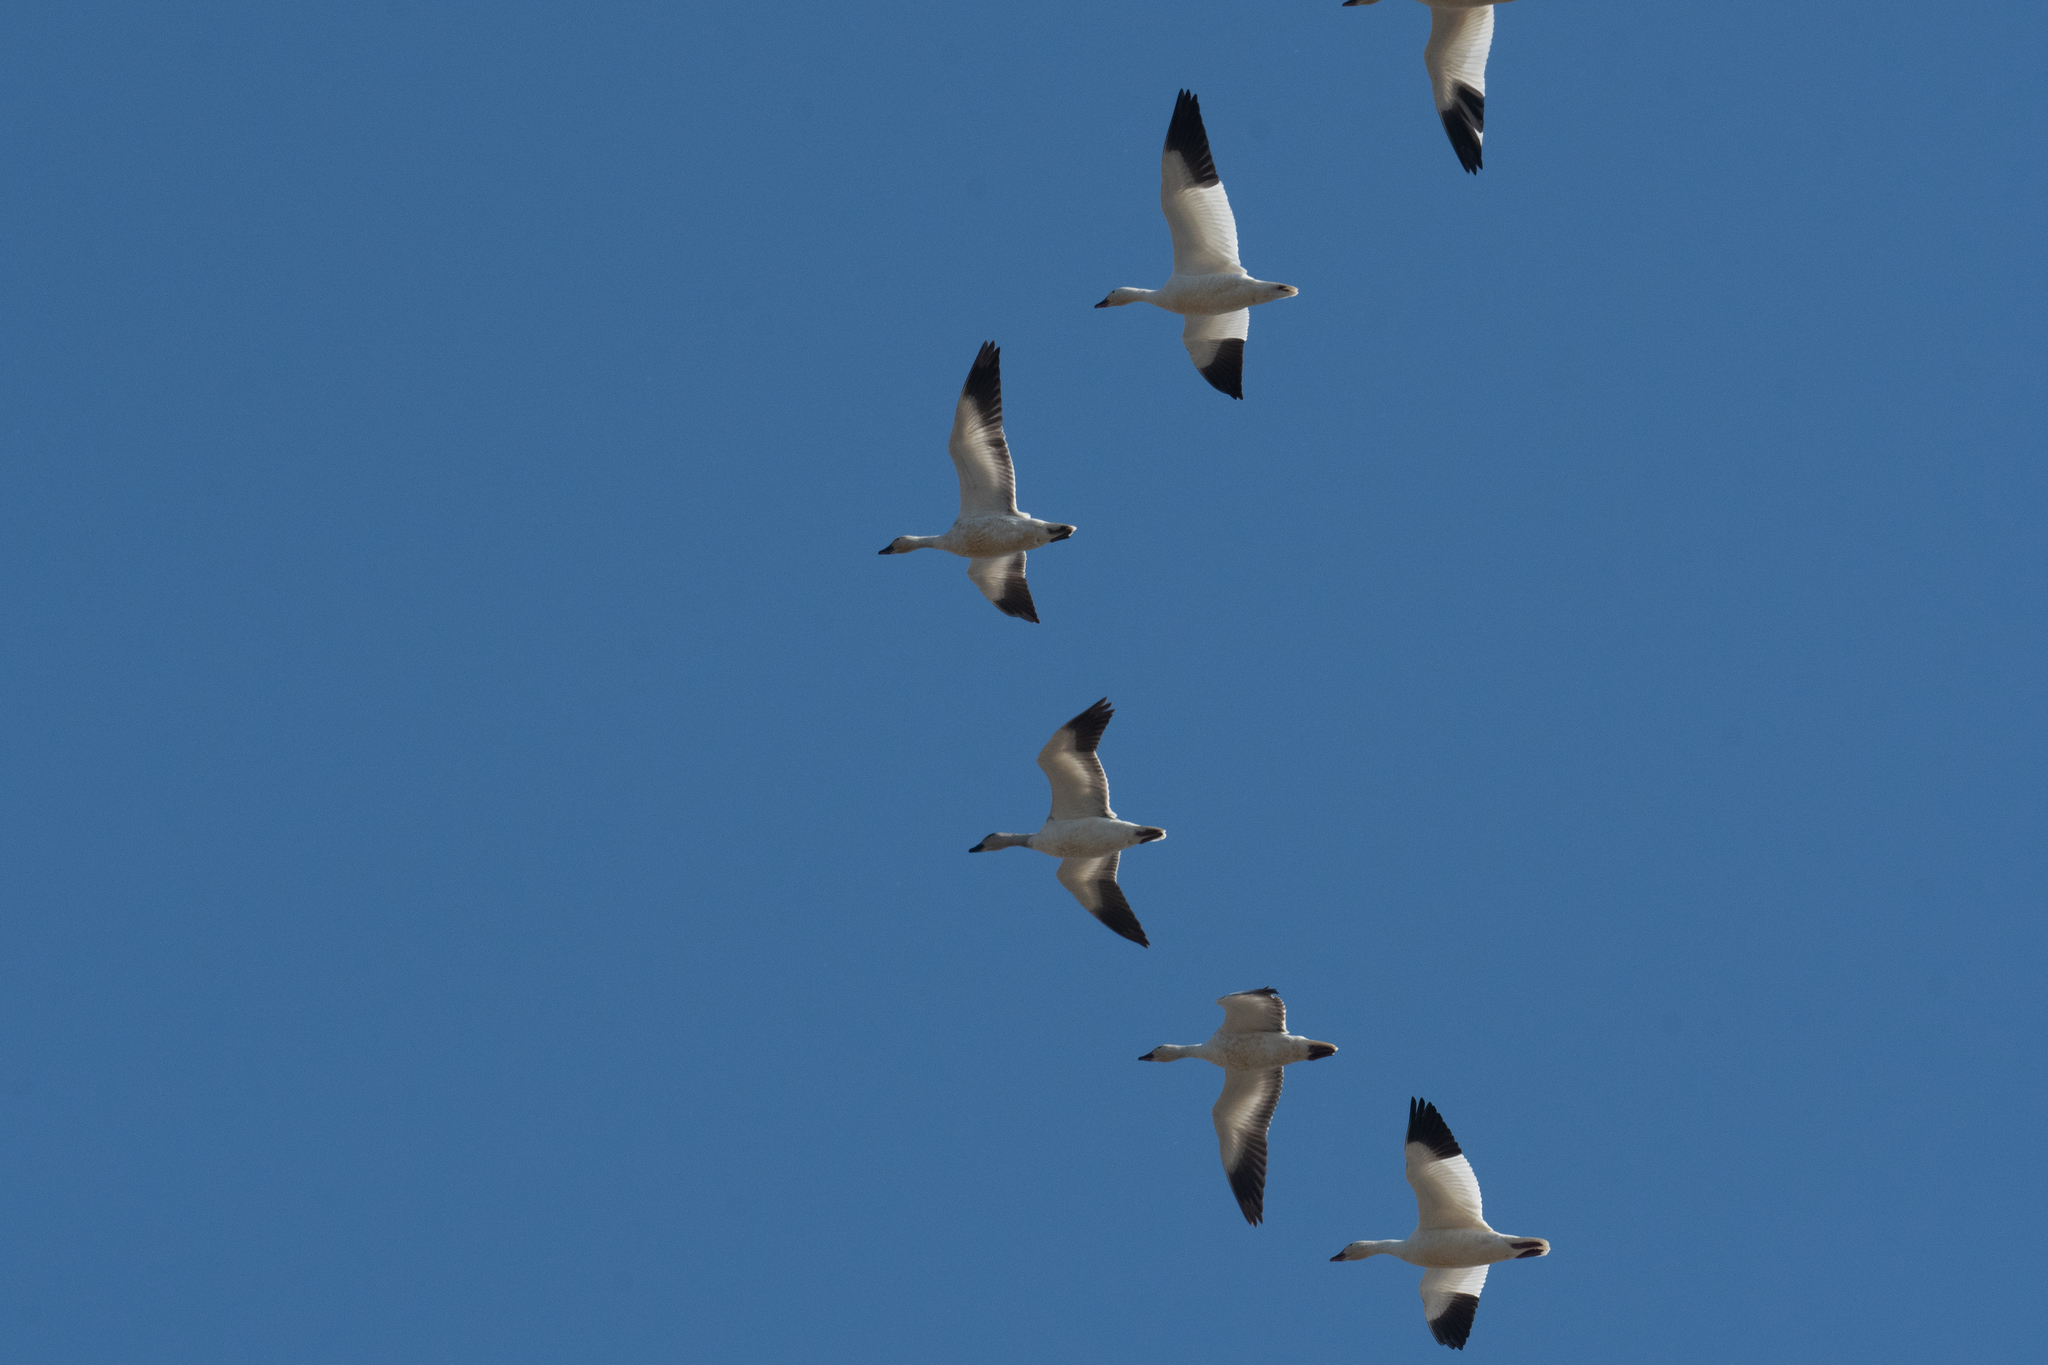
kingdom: Animalia
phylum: Chordata
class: Aves
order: Anseriformes
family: Anatidae
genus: Anser
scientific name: Anser caerulescens
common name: Snow goose
